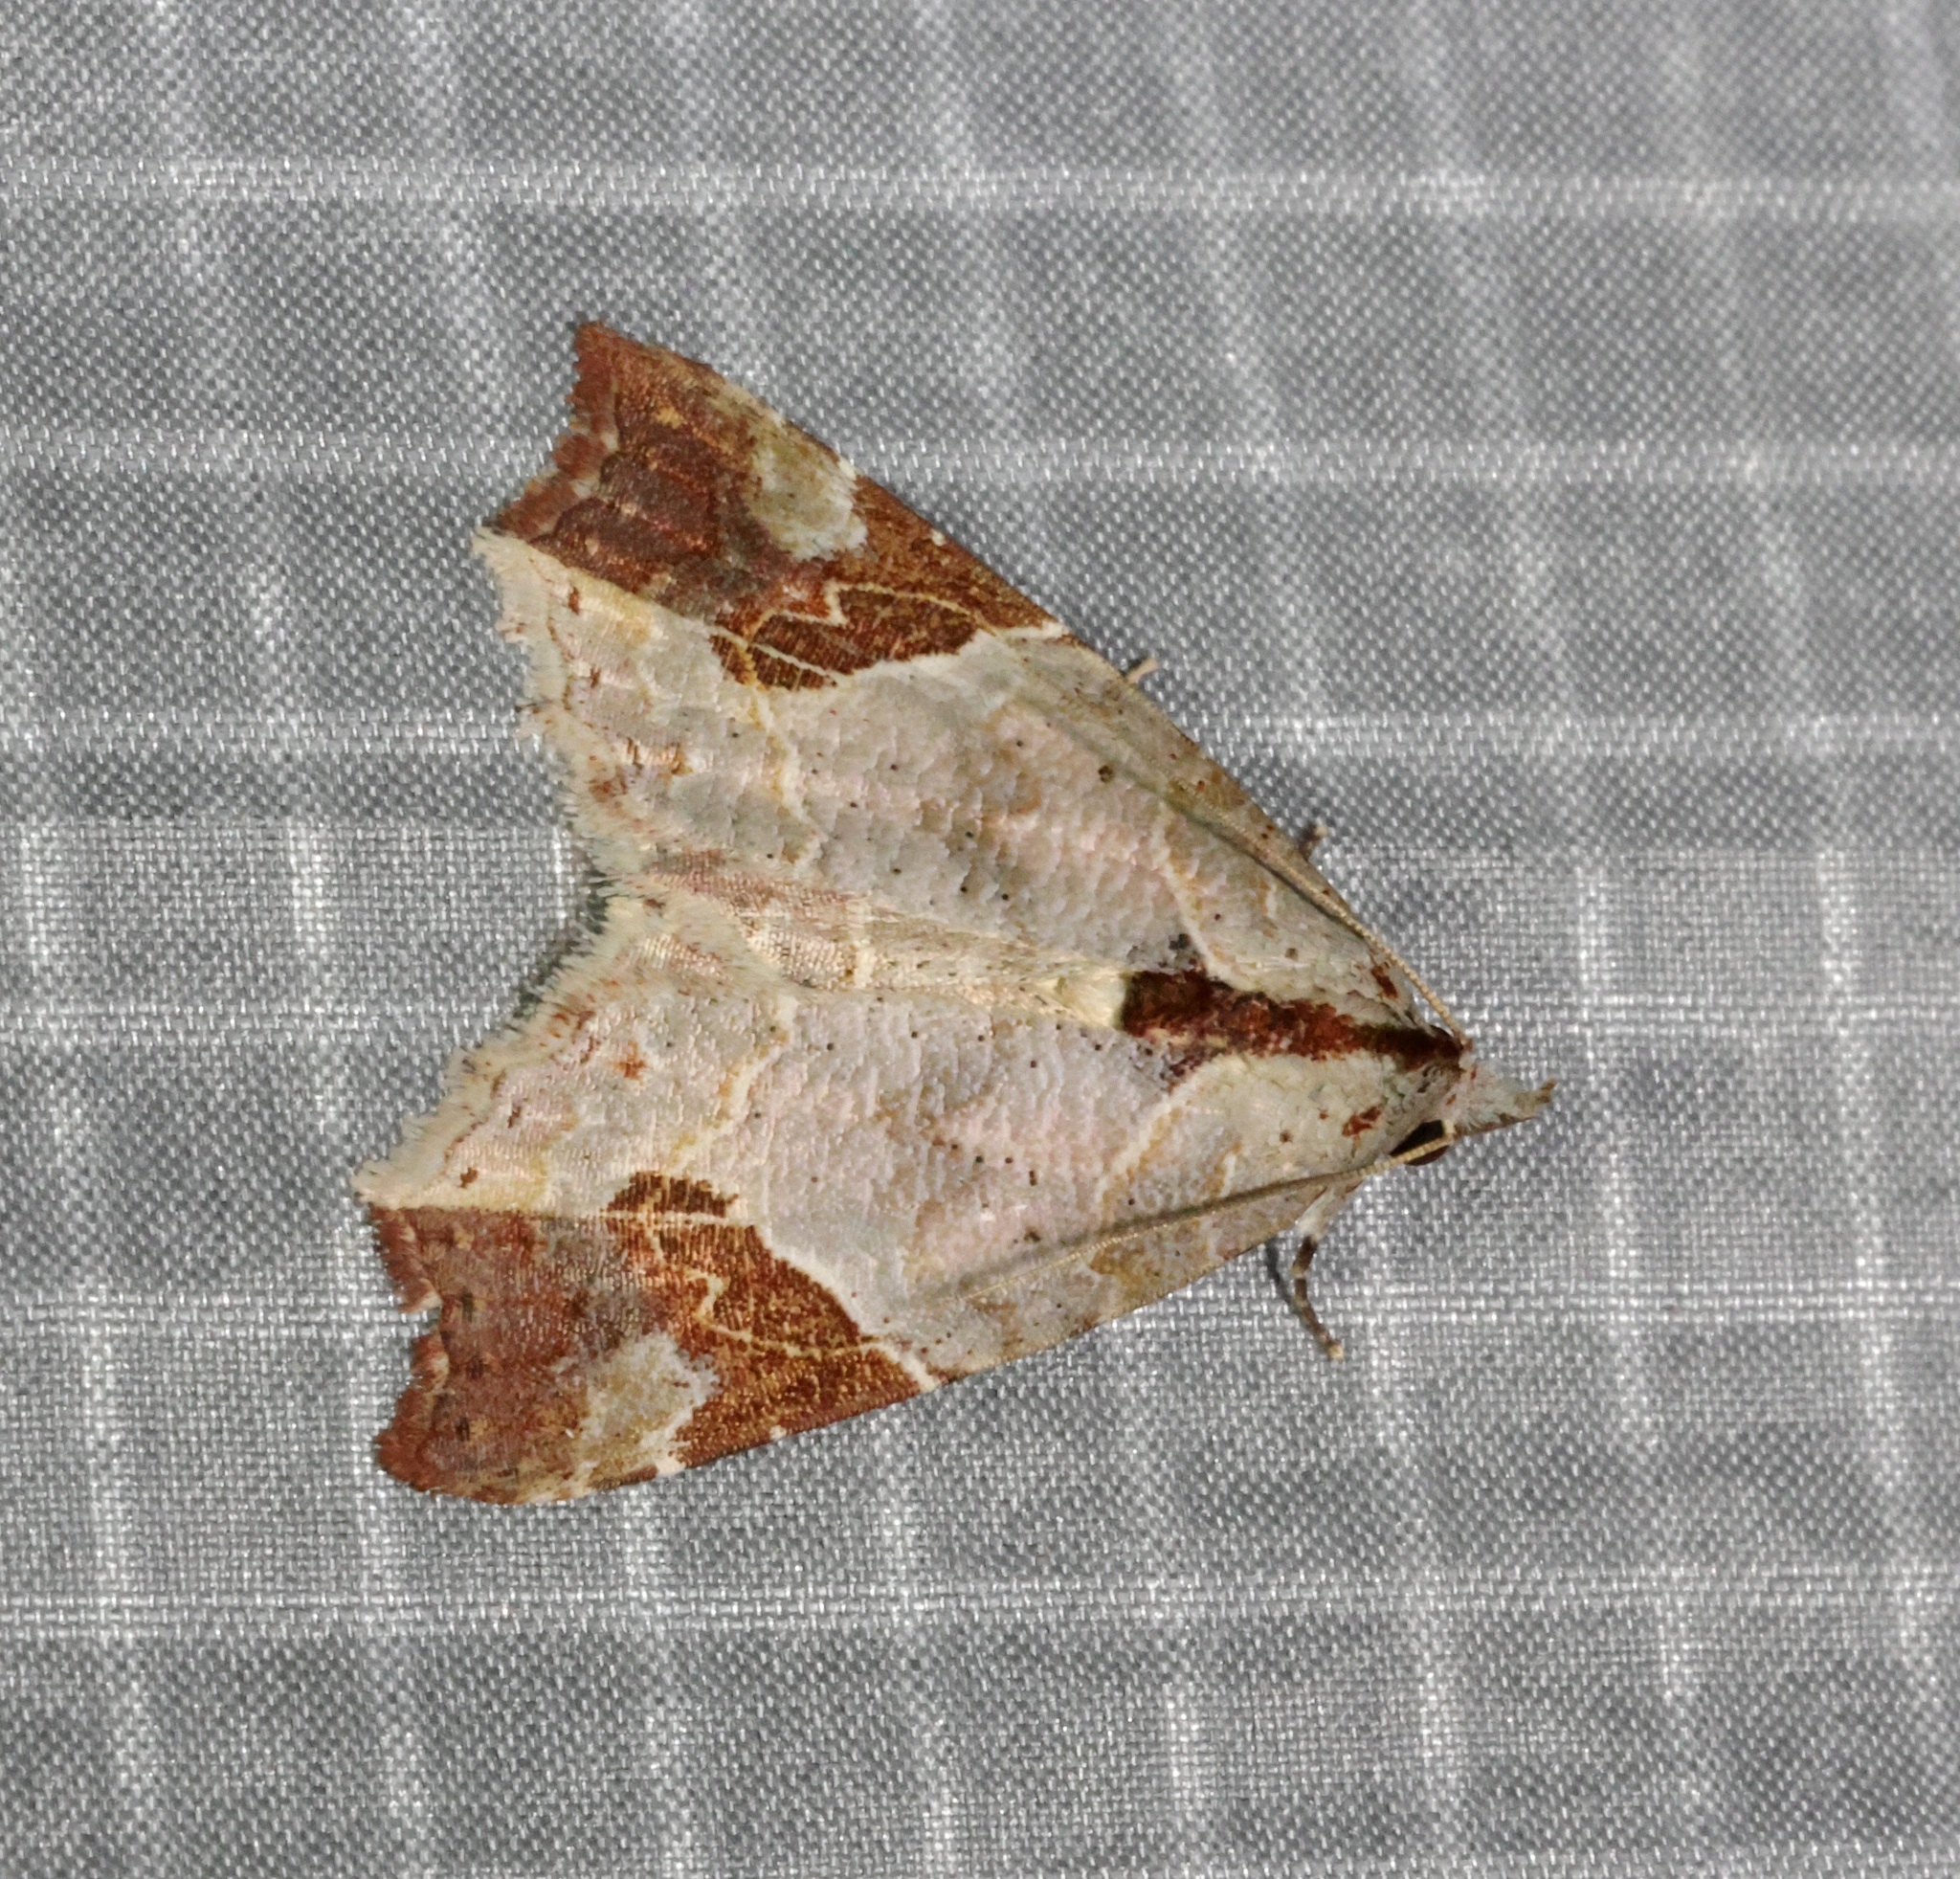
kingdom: Animalia
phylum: Arthropoda
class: Insecta
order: Lepidoptera
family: Erebidae
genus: Tamba
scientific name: Tamba cautiperas
